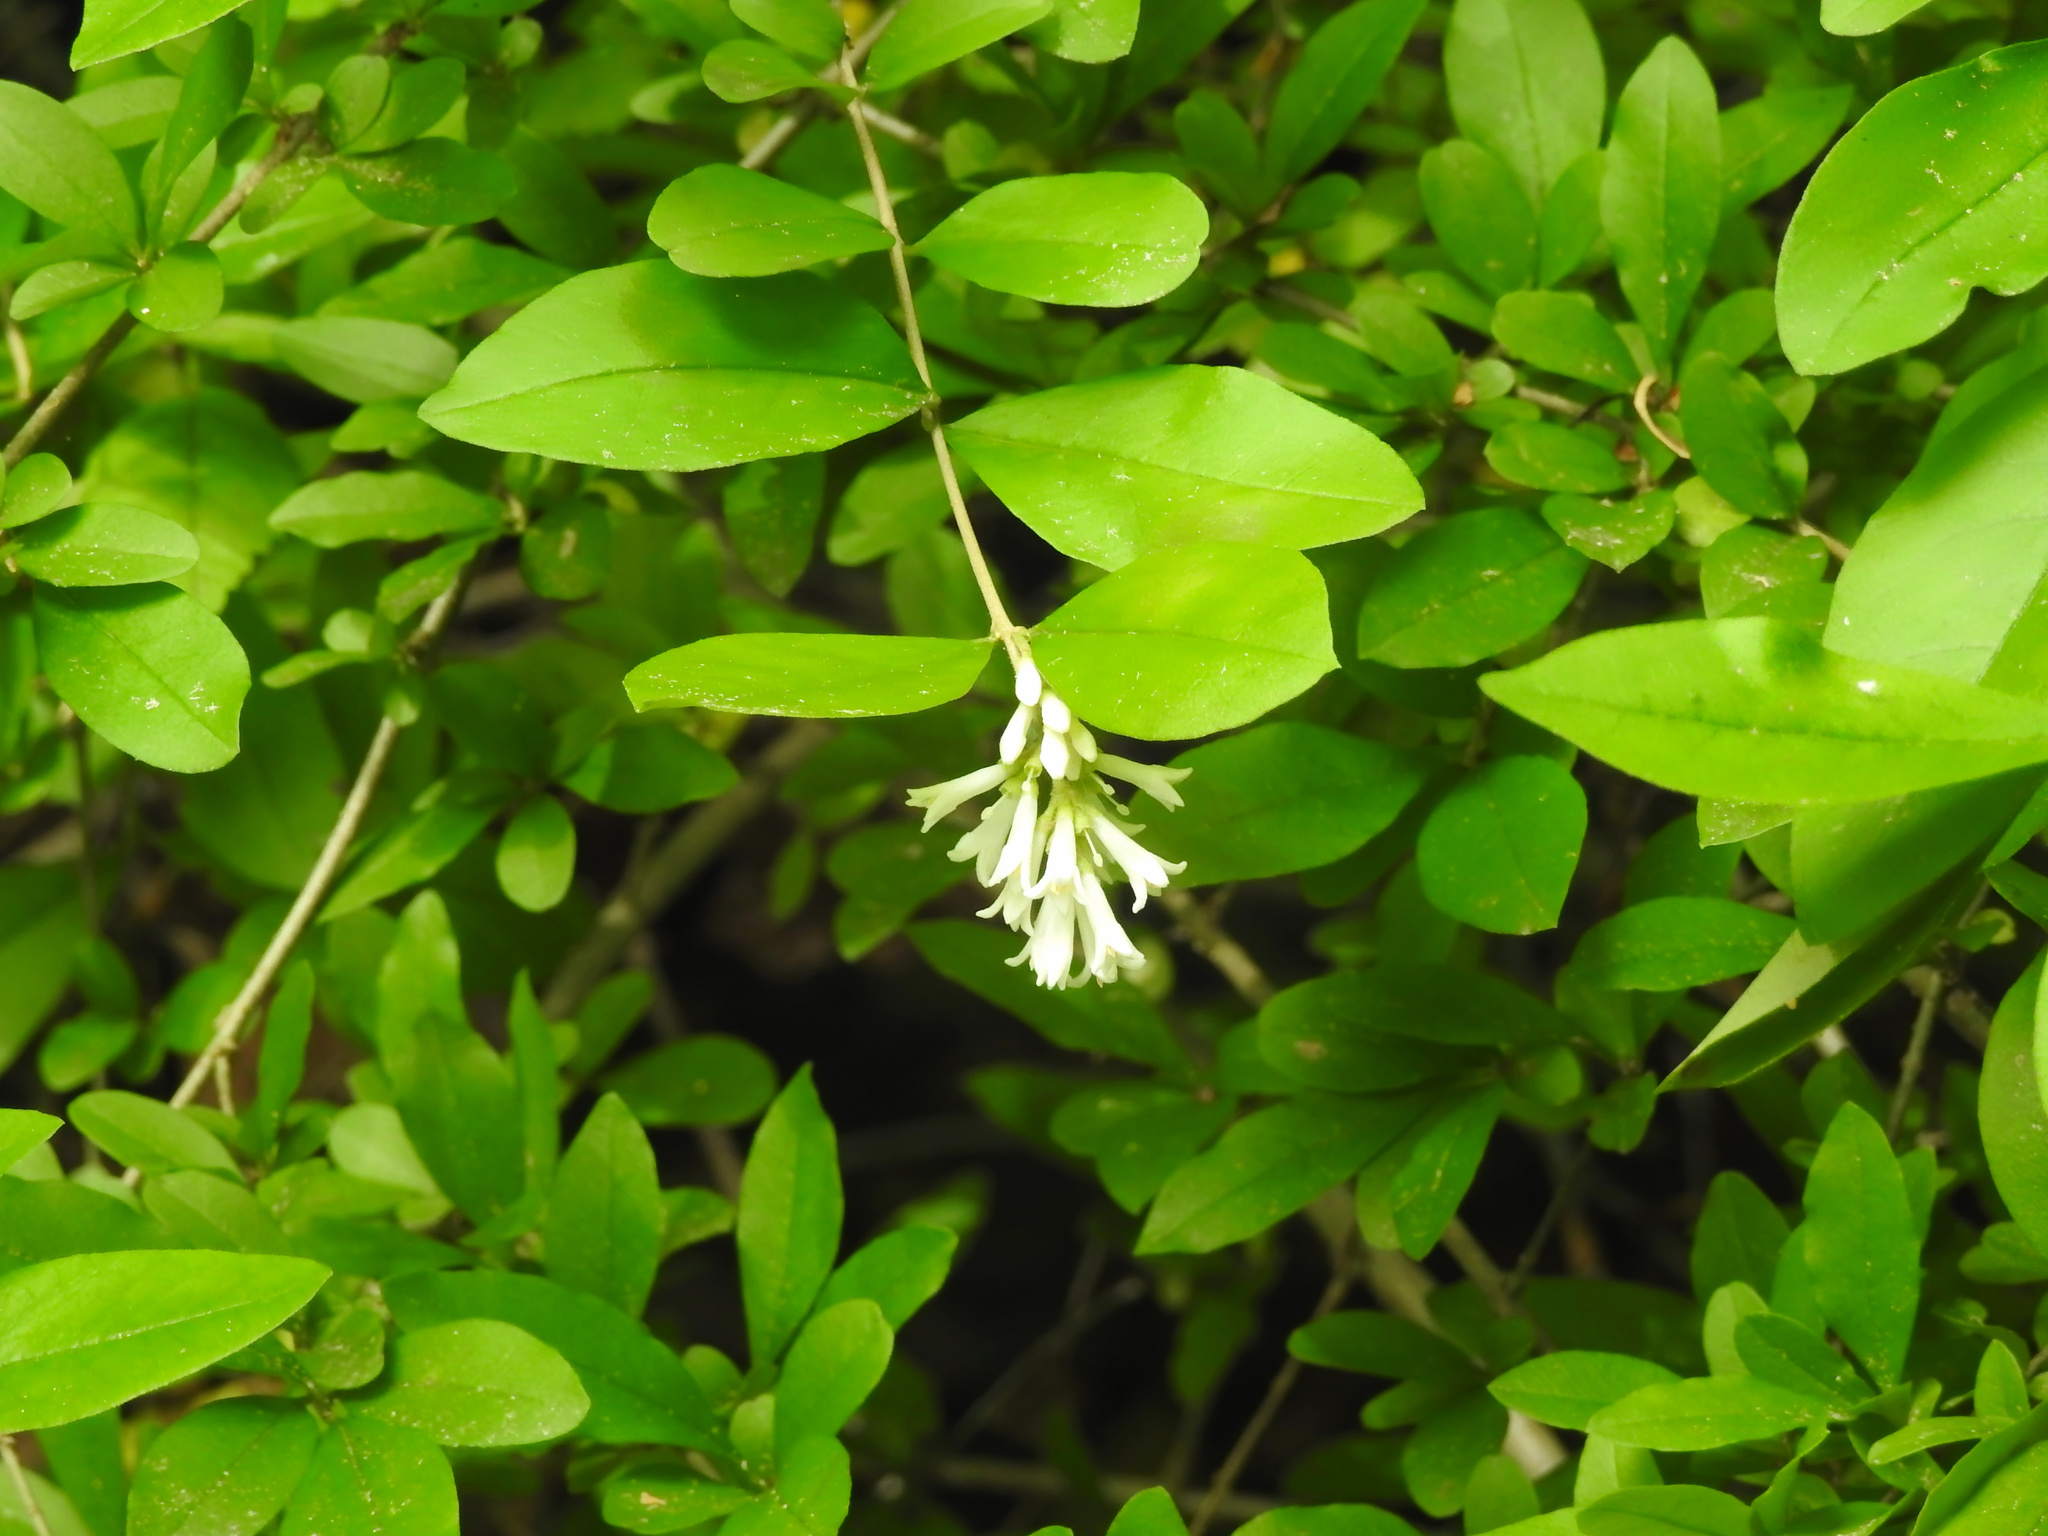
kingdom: Plantae
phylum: Tracheophyta
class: Magnoliopsida
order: Lamiales
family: Oleaceae
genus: Ligustrum
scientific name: Ligustrum obtusifolium
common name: Border privet
